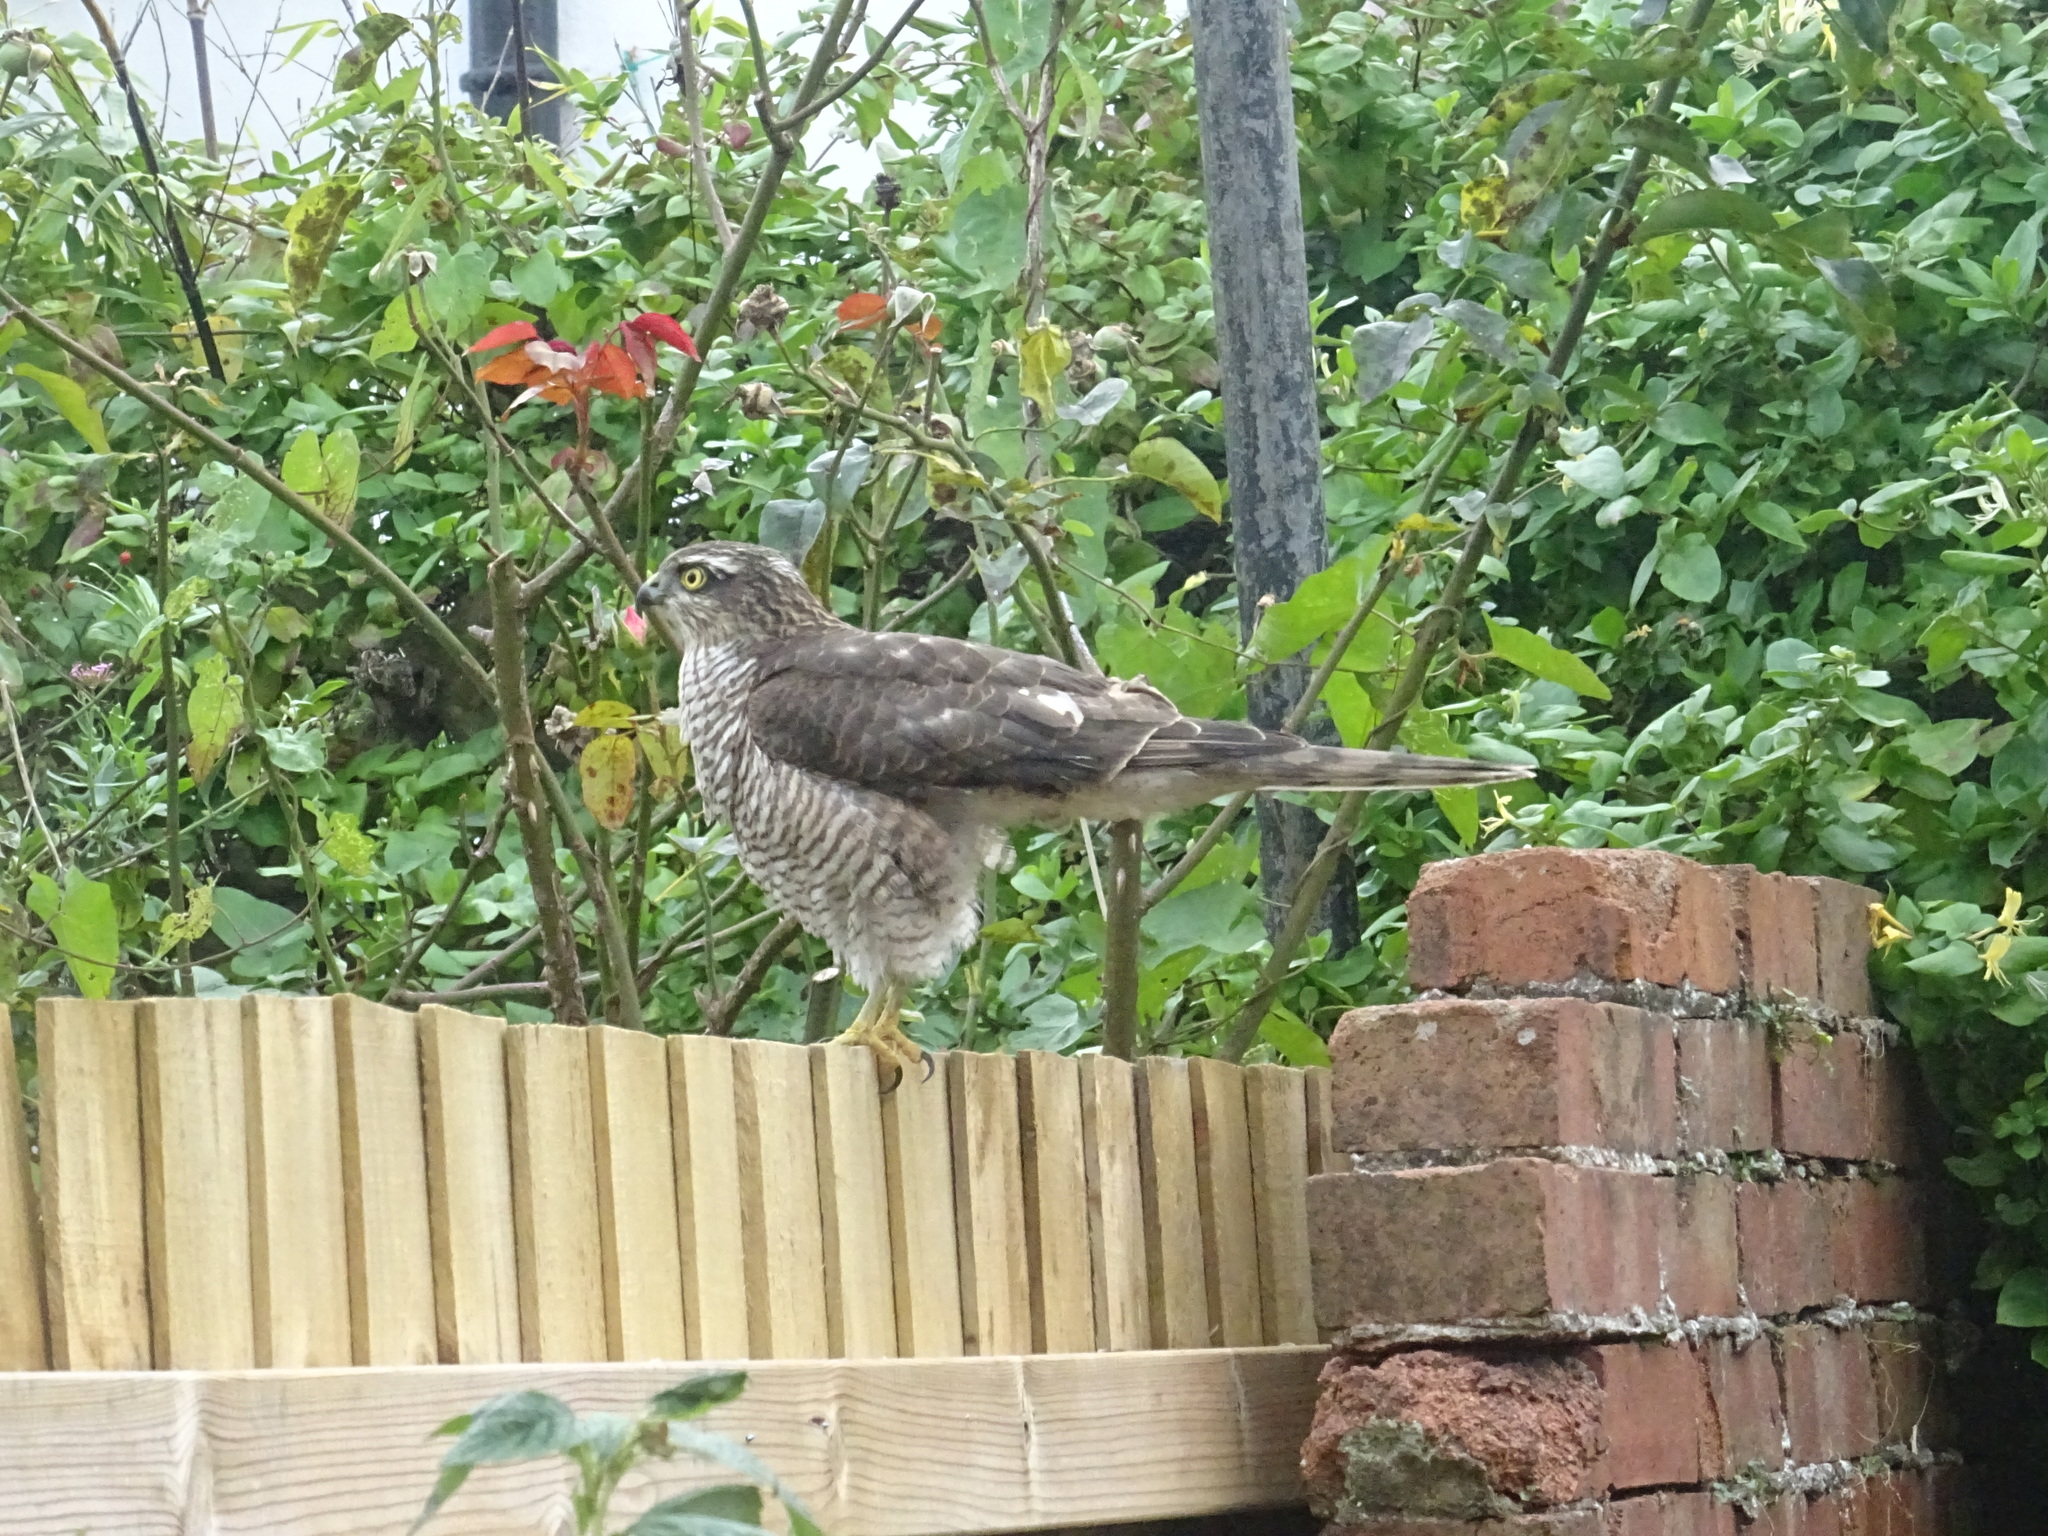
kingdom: Animalia
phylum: Chordata
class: Aves
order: Accipitriformes
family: Accipitridae
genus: Accipiter
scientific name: Accipiter nisus
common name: Eurasian sparrowhawk
